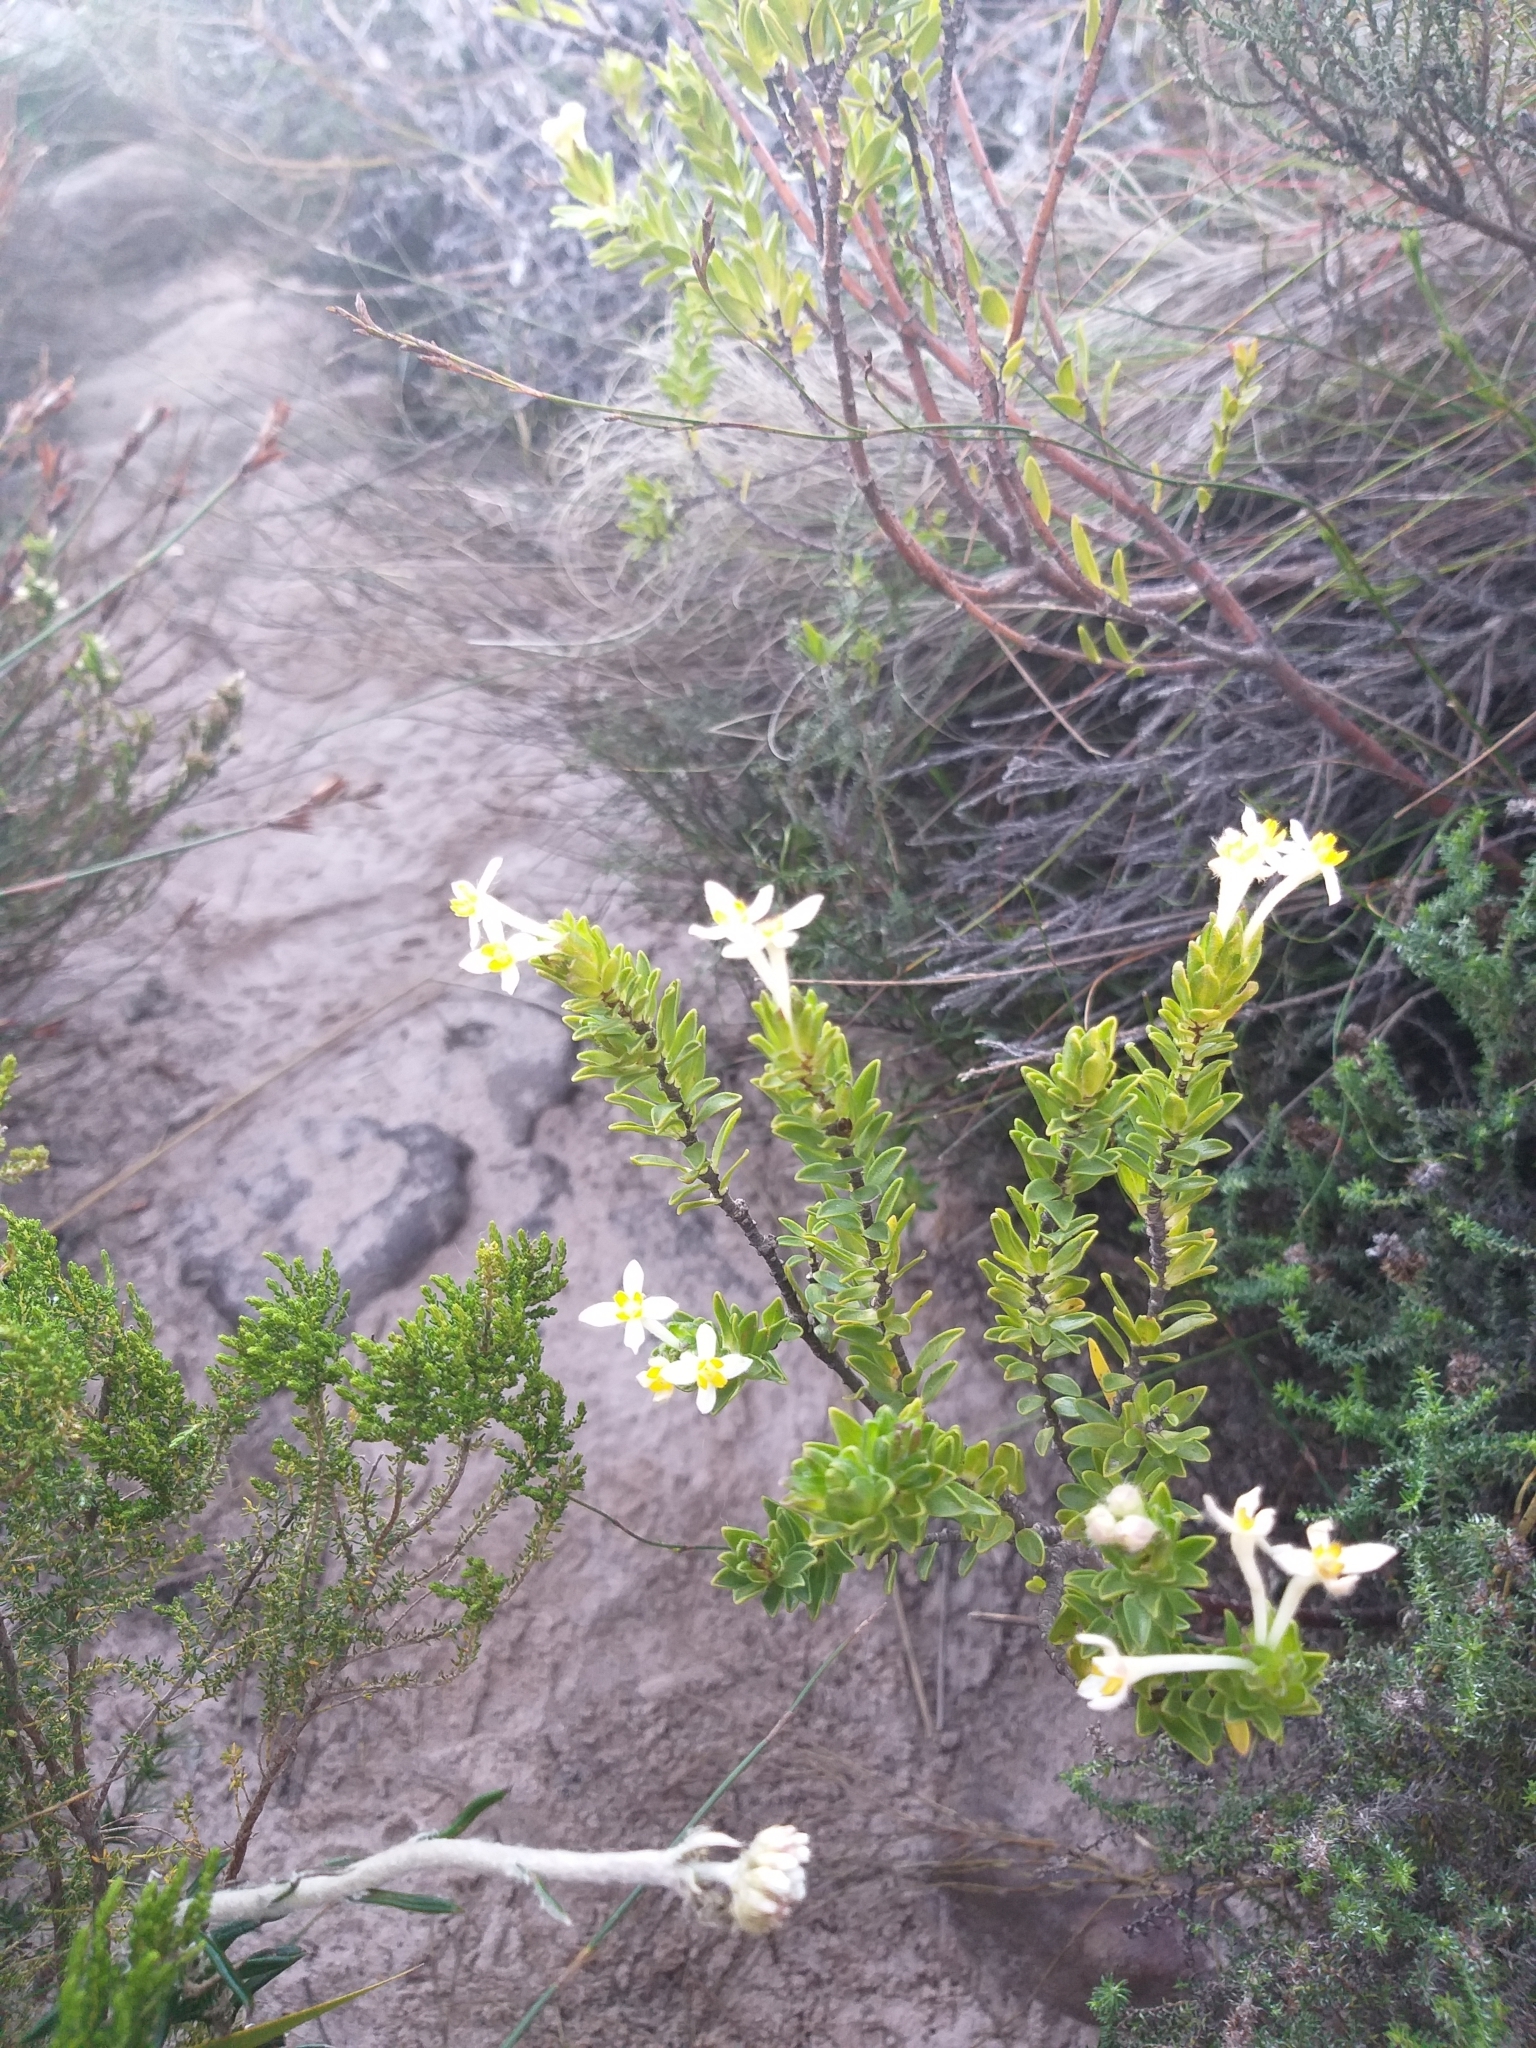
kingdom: Plantae
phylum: Tracheophyta
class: Magnoliopsida
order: Malvales
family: Thymelaeaceae
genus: Gnidia
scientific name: Gnidia tomentosa
